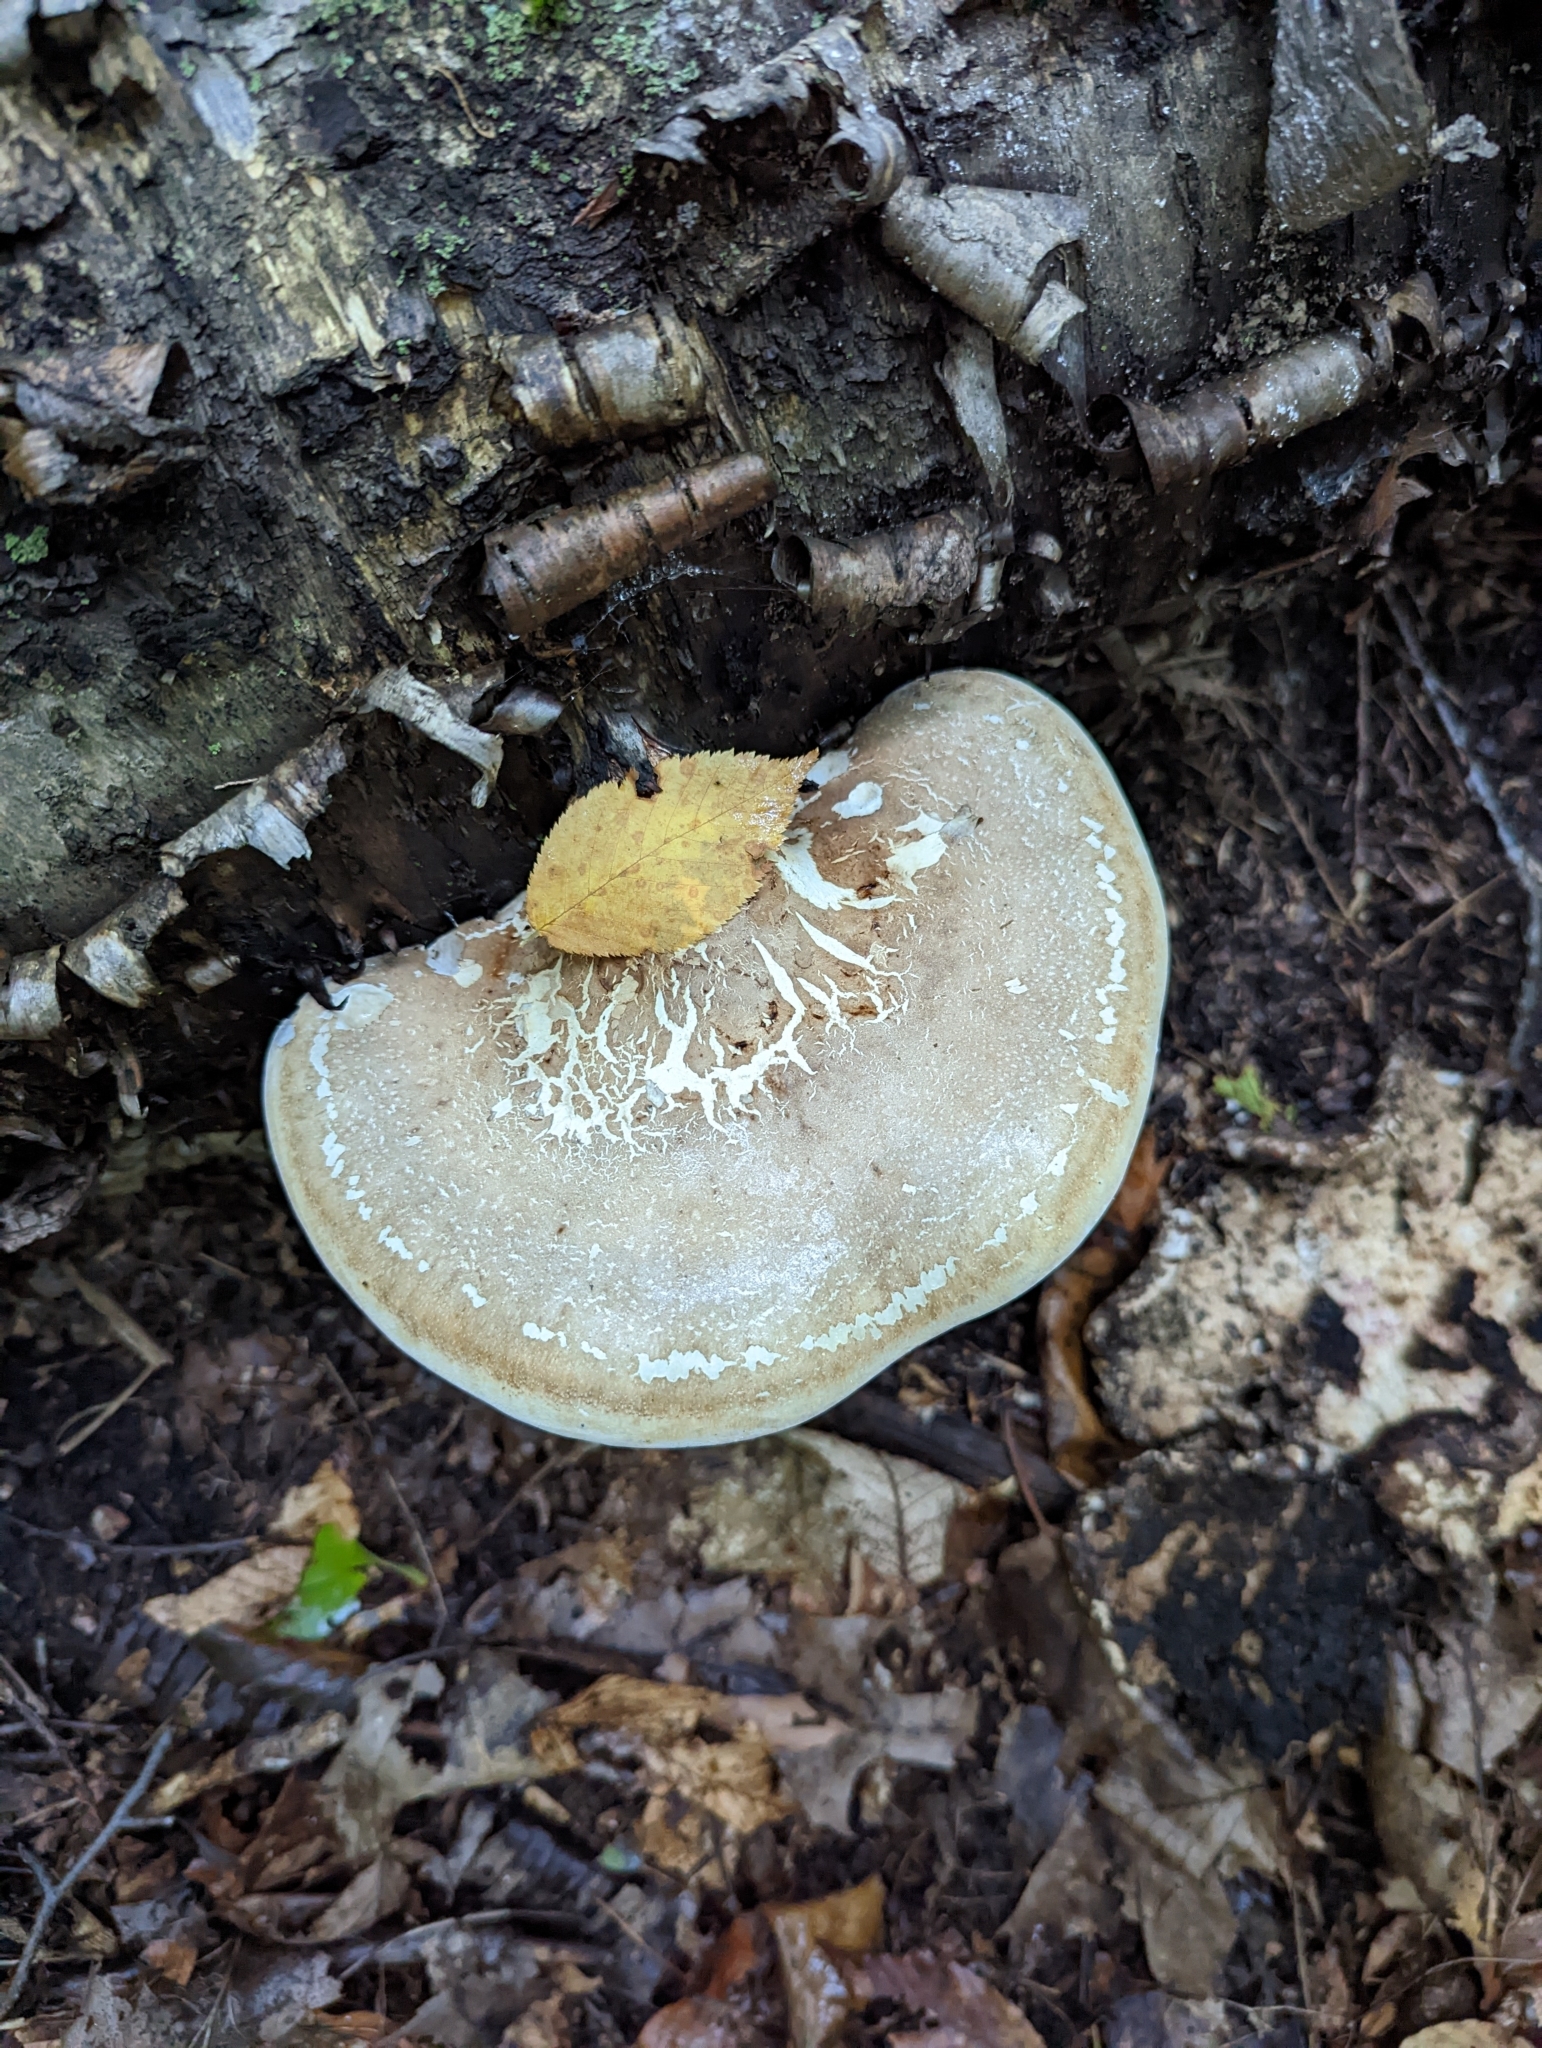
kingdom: Fungi
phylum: Basidiomycota
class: Agaricomycetes
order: Polyporales
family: Fomitopsidaceae
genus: Fomitopsis
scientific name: Fomitopsis betulina
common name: Birch polypore
